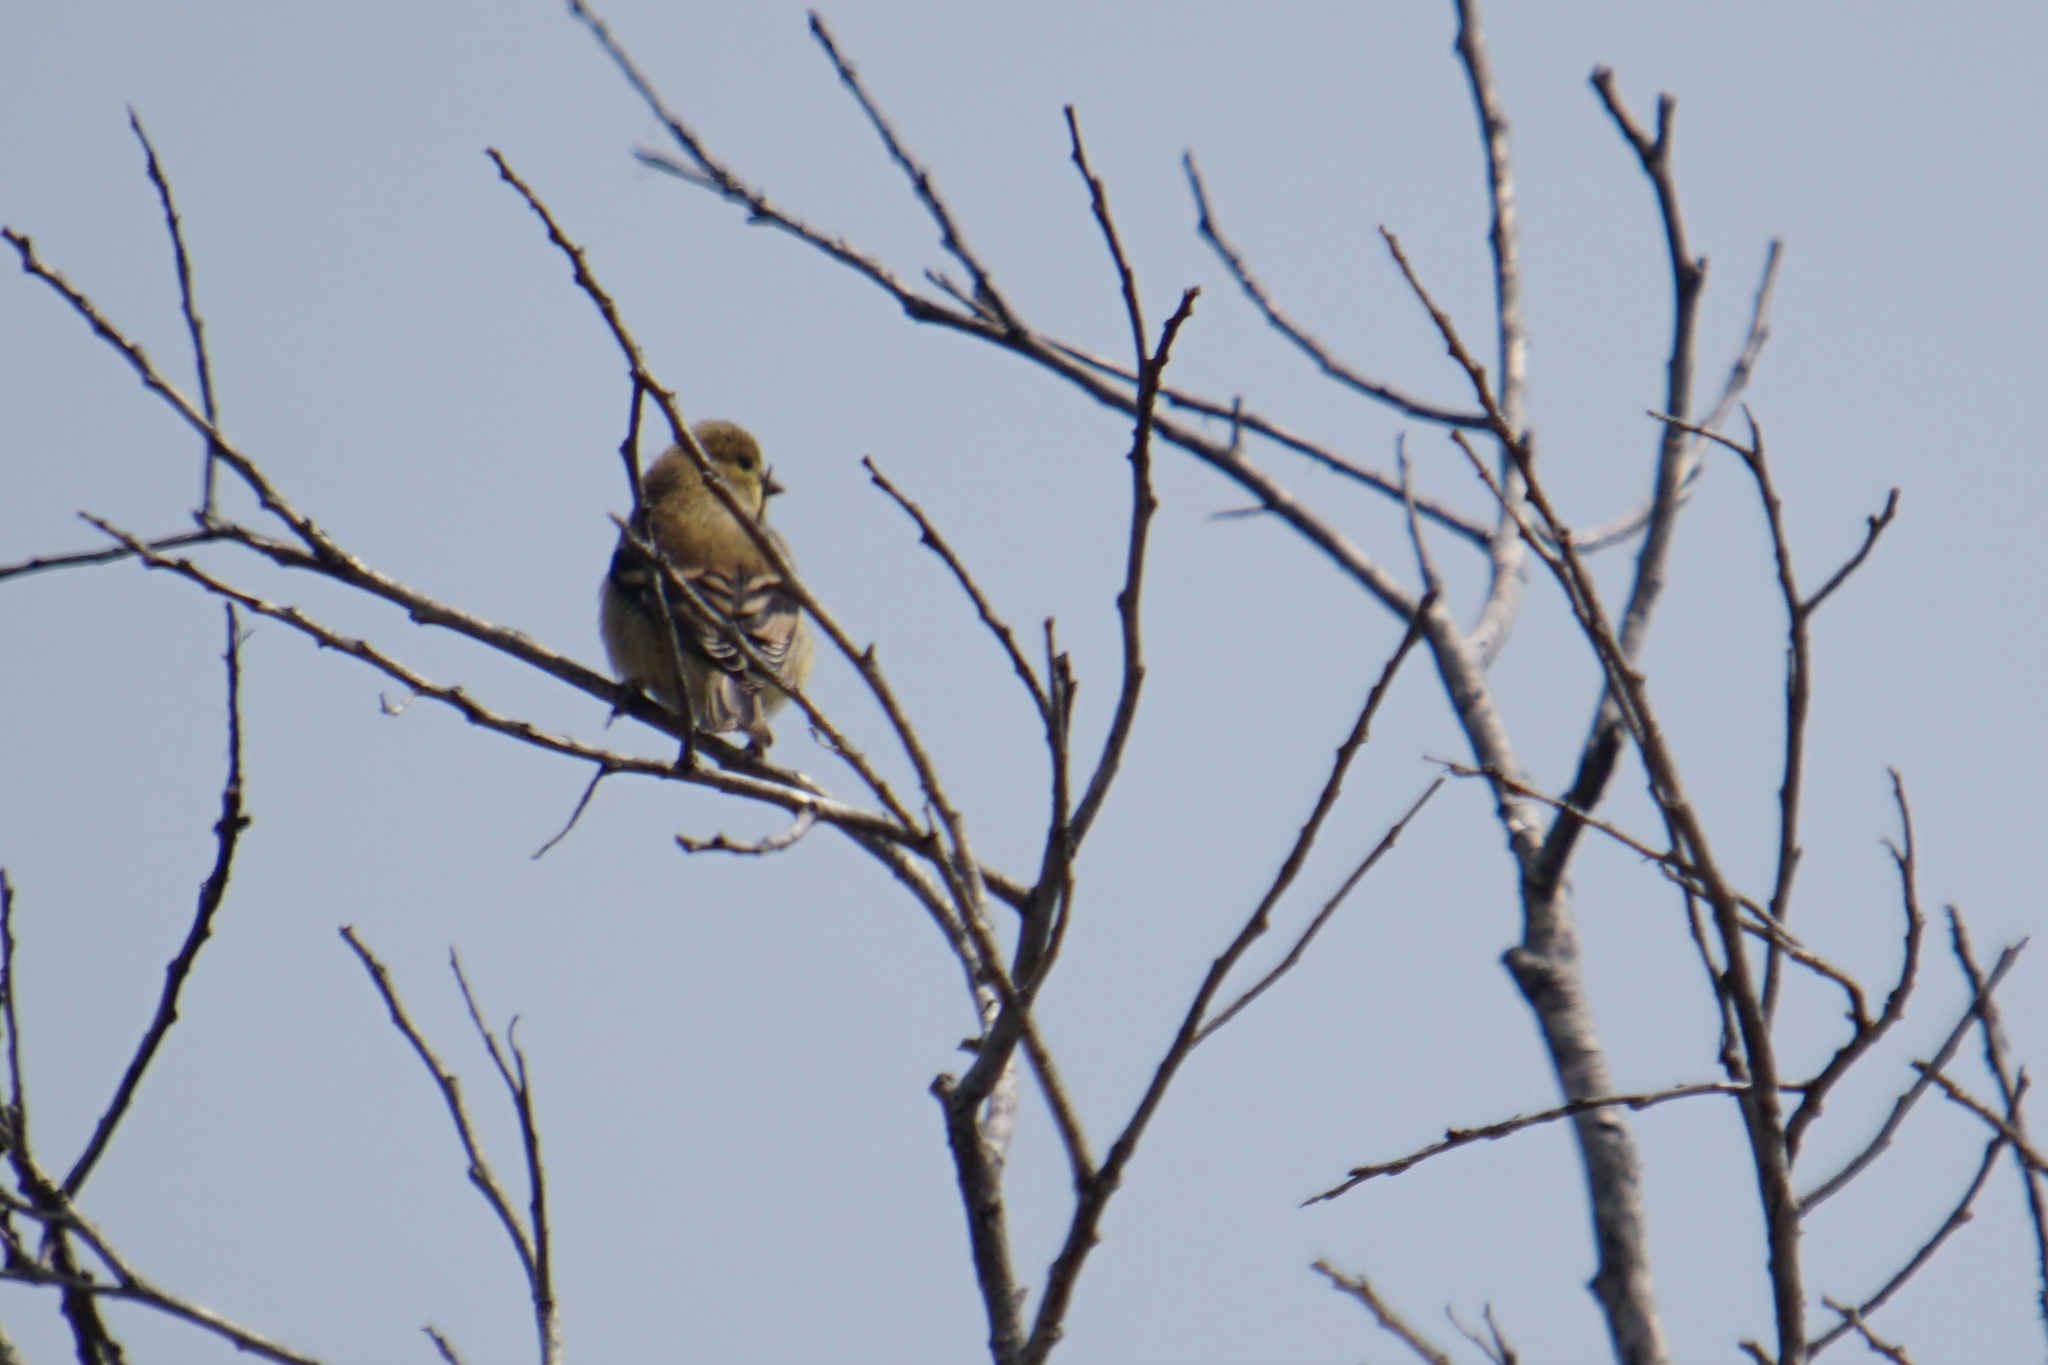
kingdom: Animalia
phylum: Chordata
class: Aves
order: Passeriformes
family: Fringillidae
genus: Spinus
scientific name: Spinus tristis
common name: American goldfinch
